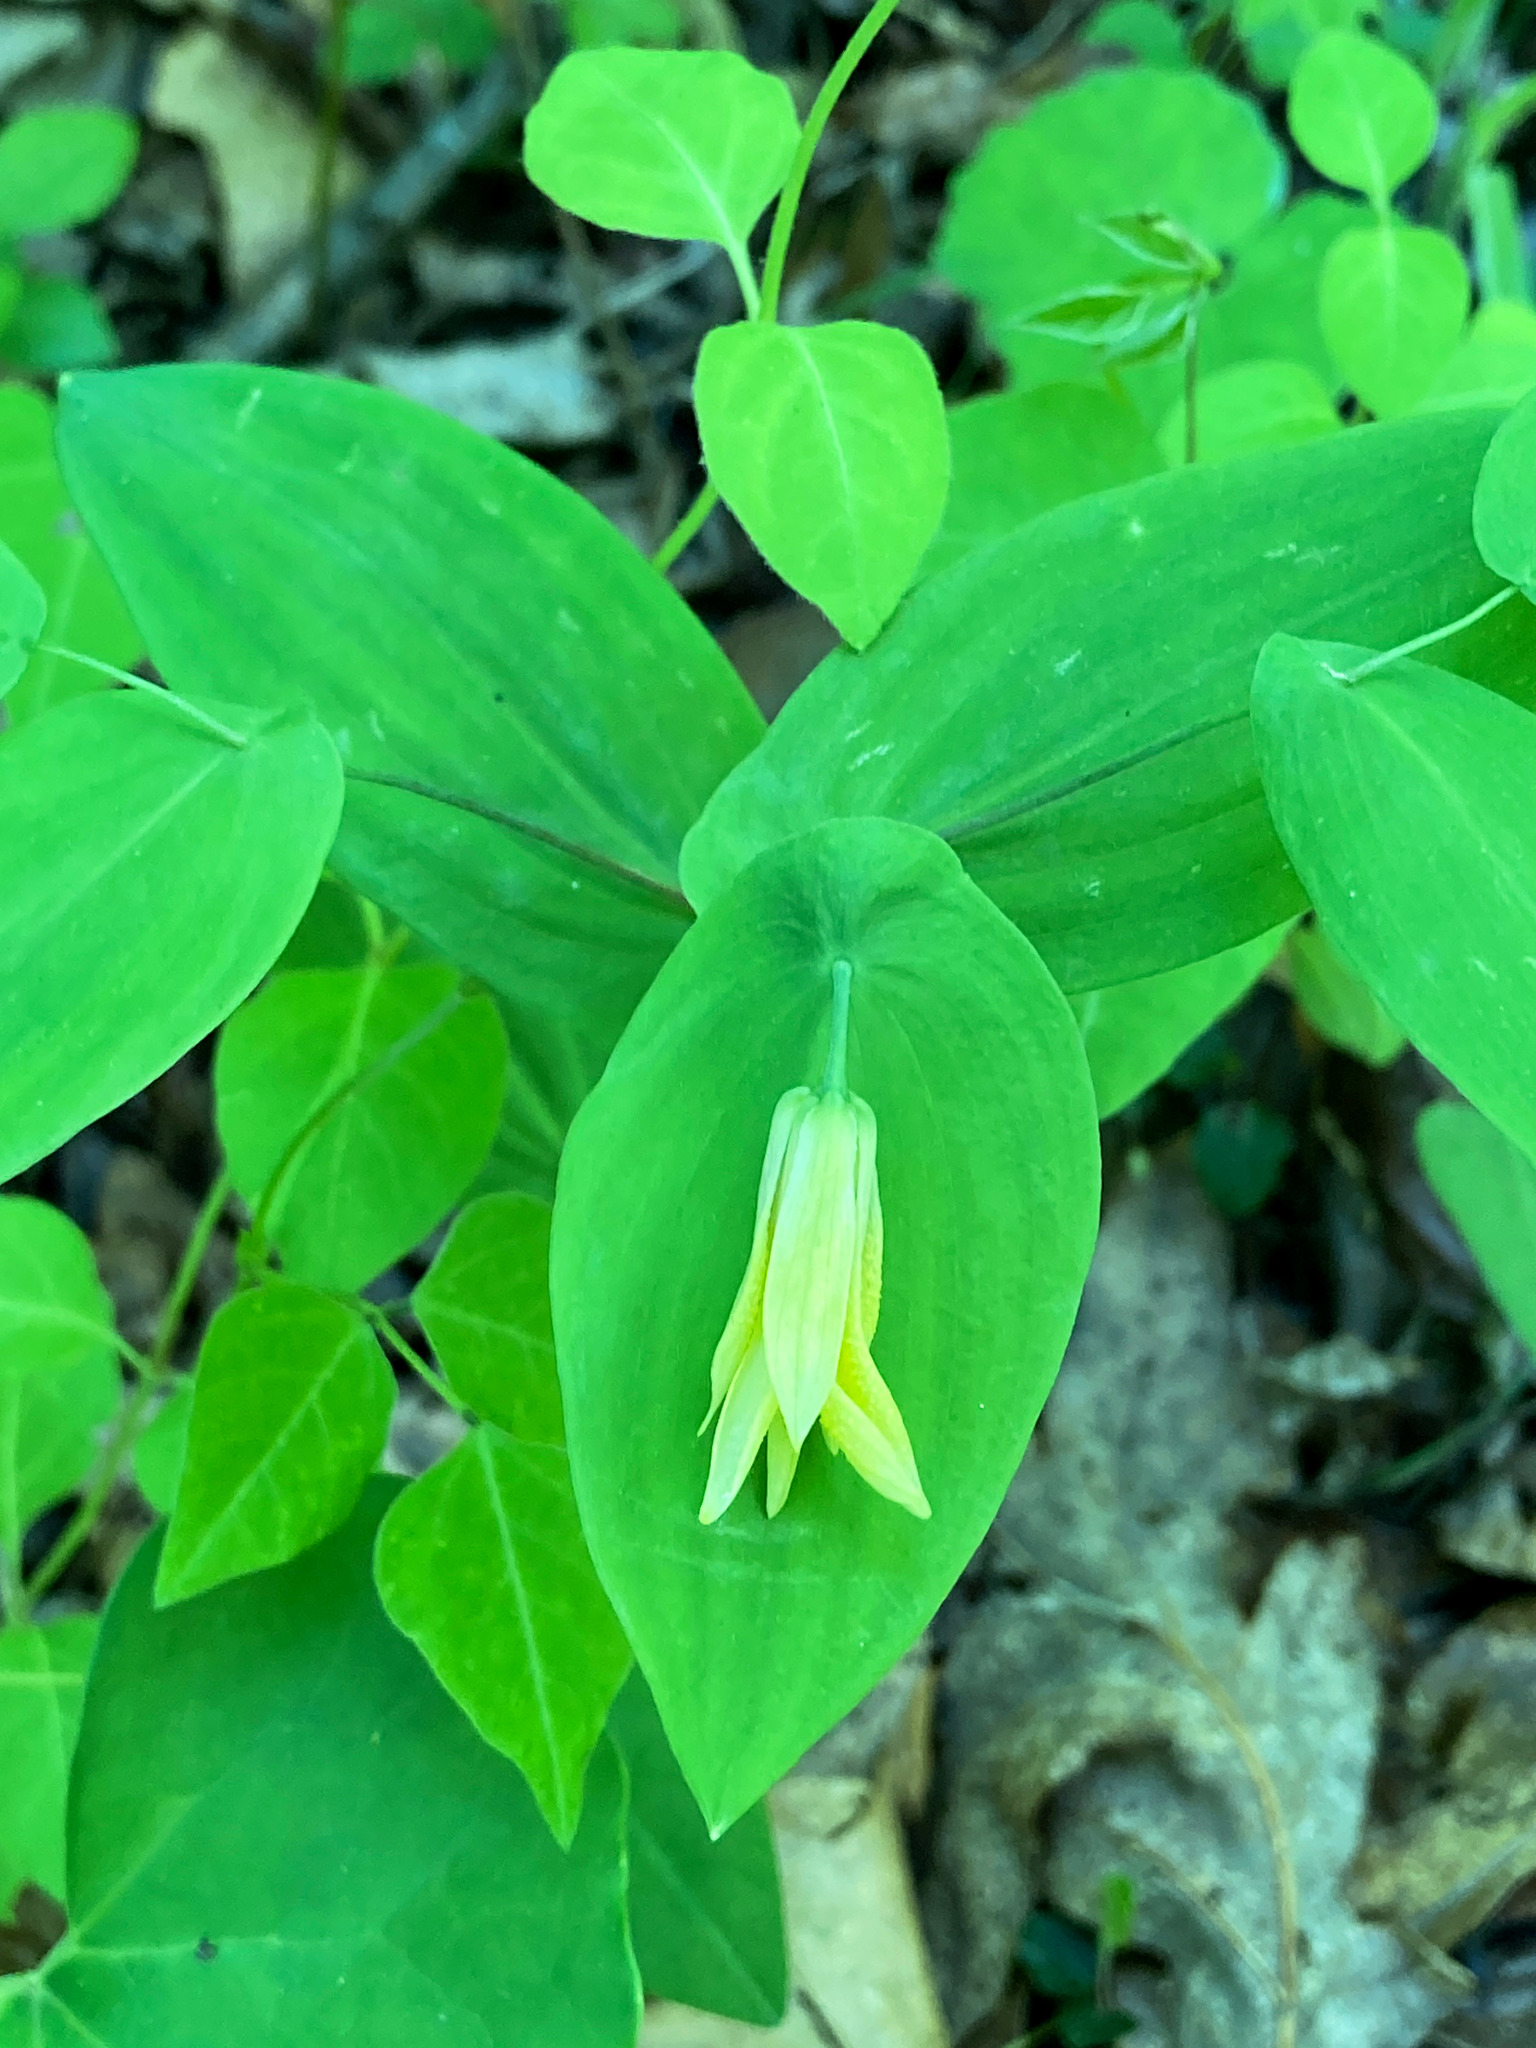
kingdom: Plantae
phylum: Tracheophyta
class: Liliopsida
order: Liliales
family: Colchicaceae
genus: Uvularia
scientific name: Uvularia perfoliata
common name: Perfoliate bellwort
